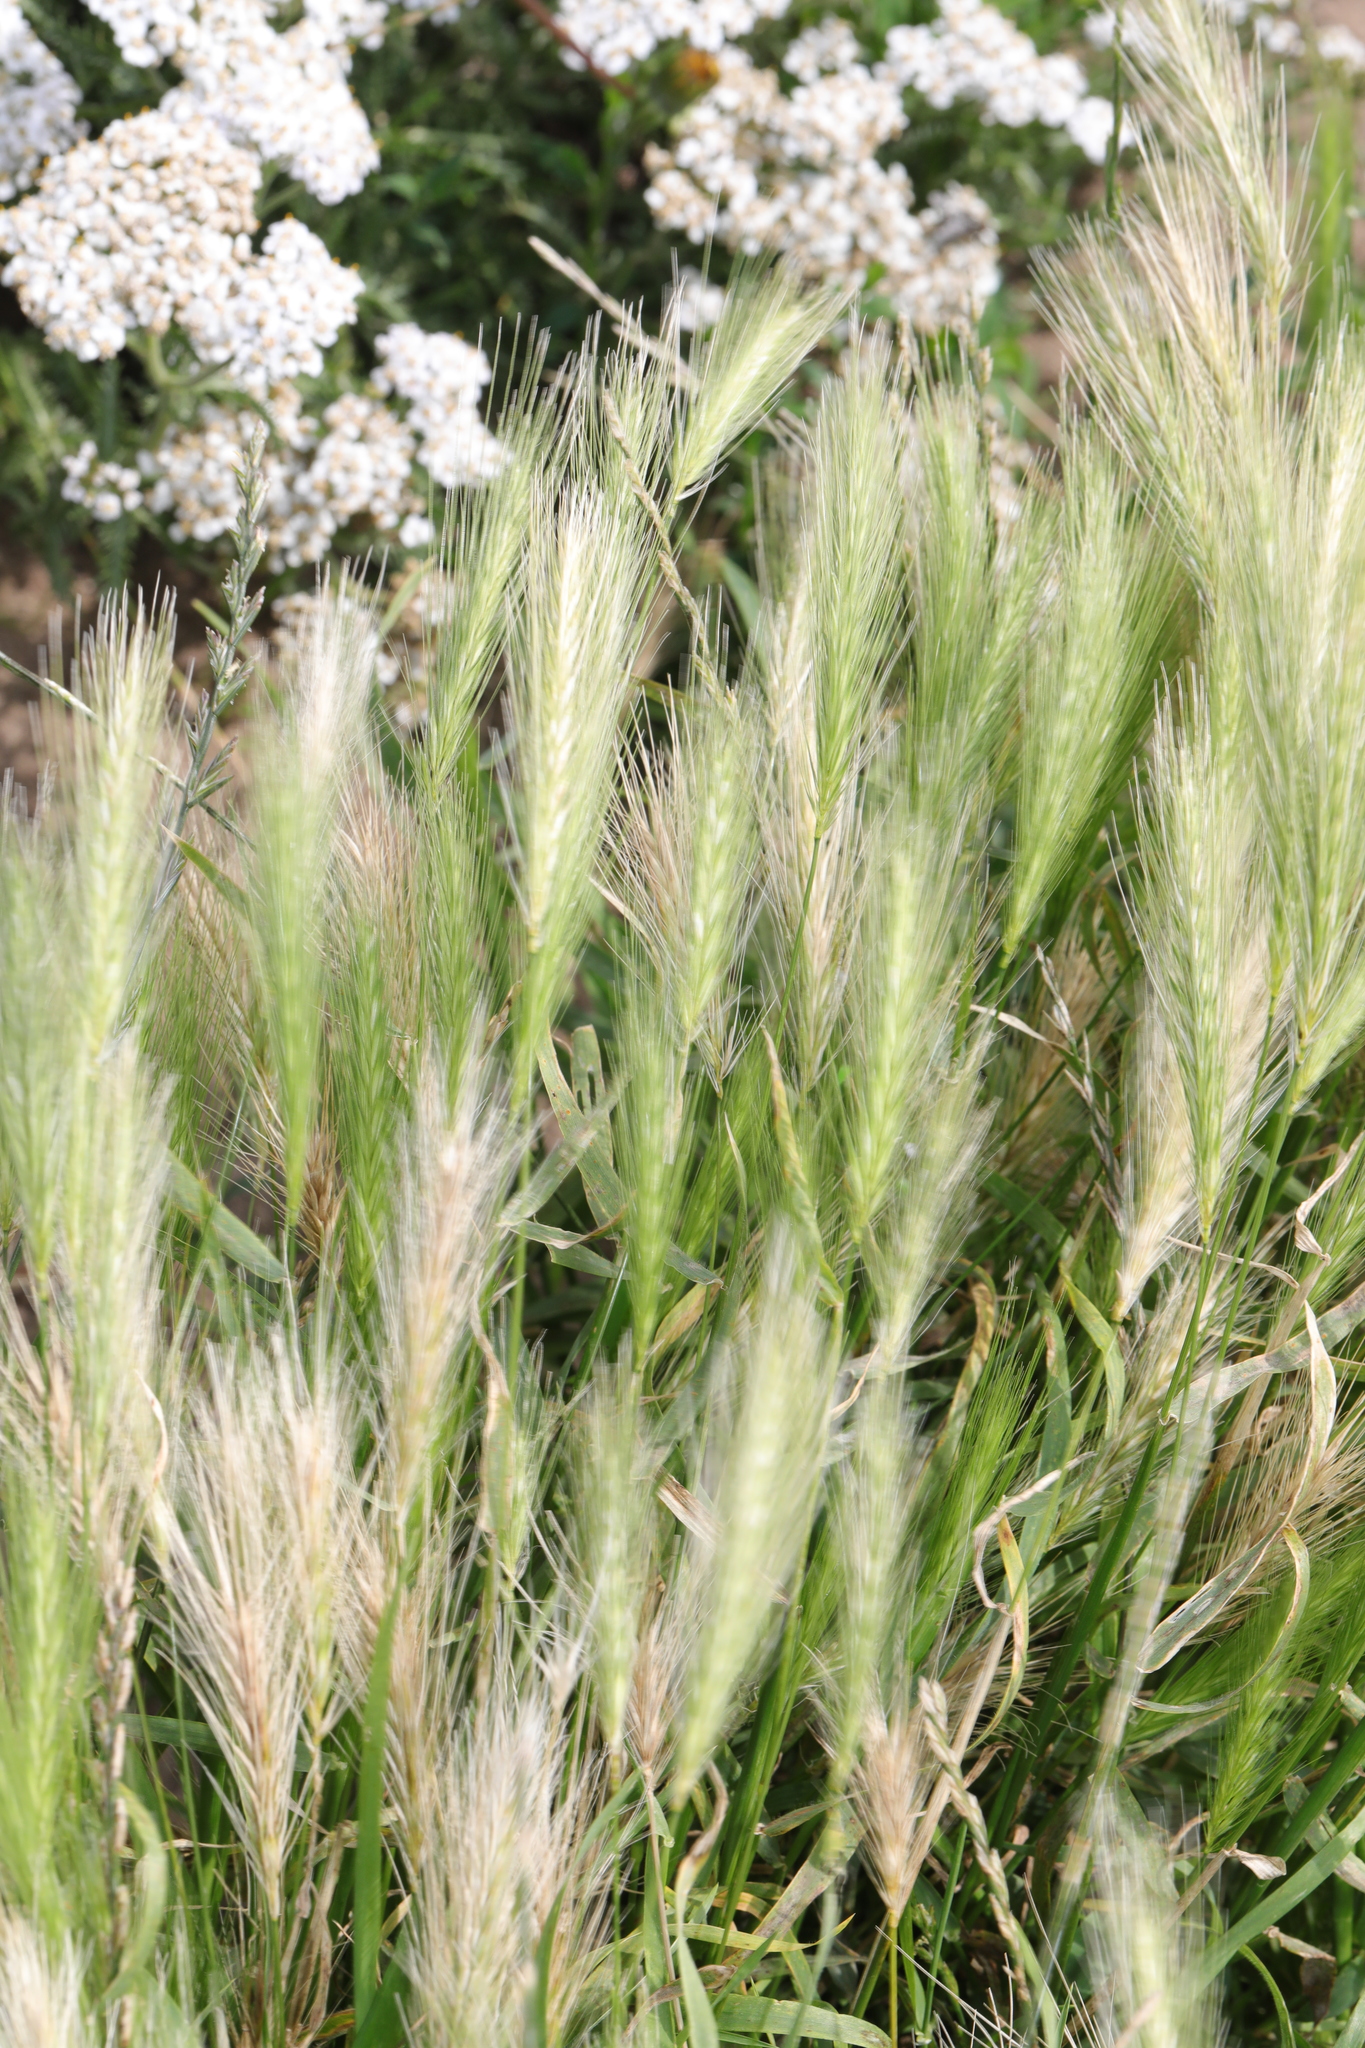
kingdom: Plantae
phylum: Tracheophyta
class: Liliopsida
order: Poales
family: Poaceae
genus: Hordeum
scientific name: Hordeum murinum
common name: Wall barley
